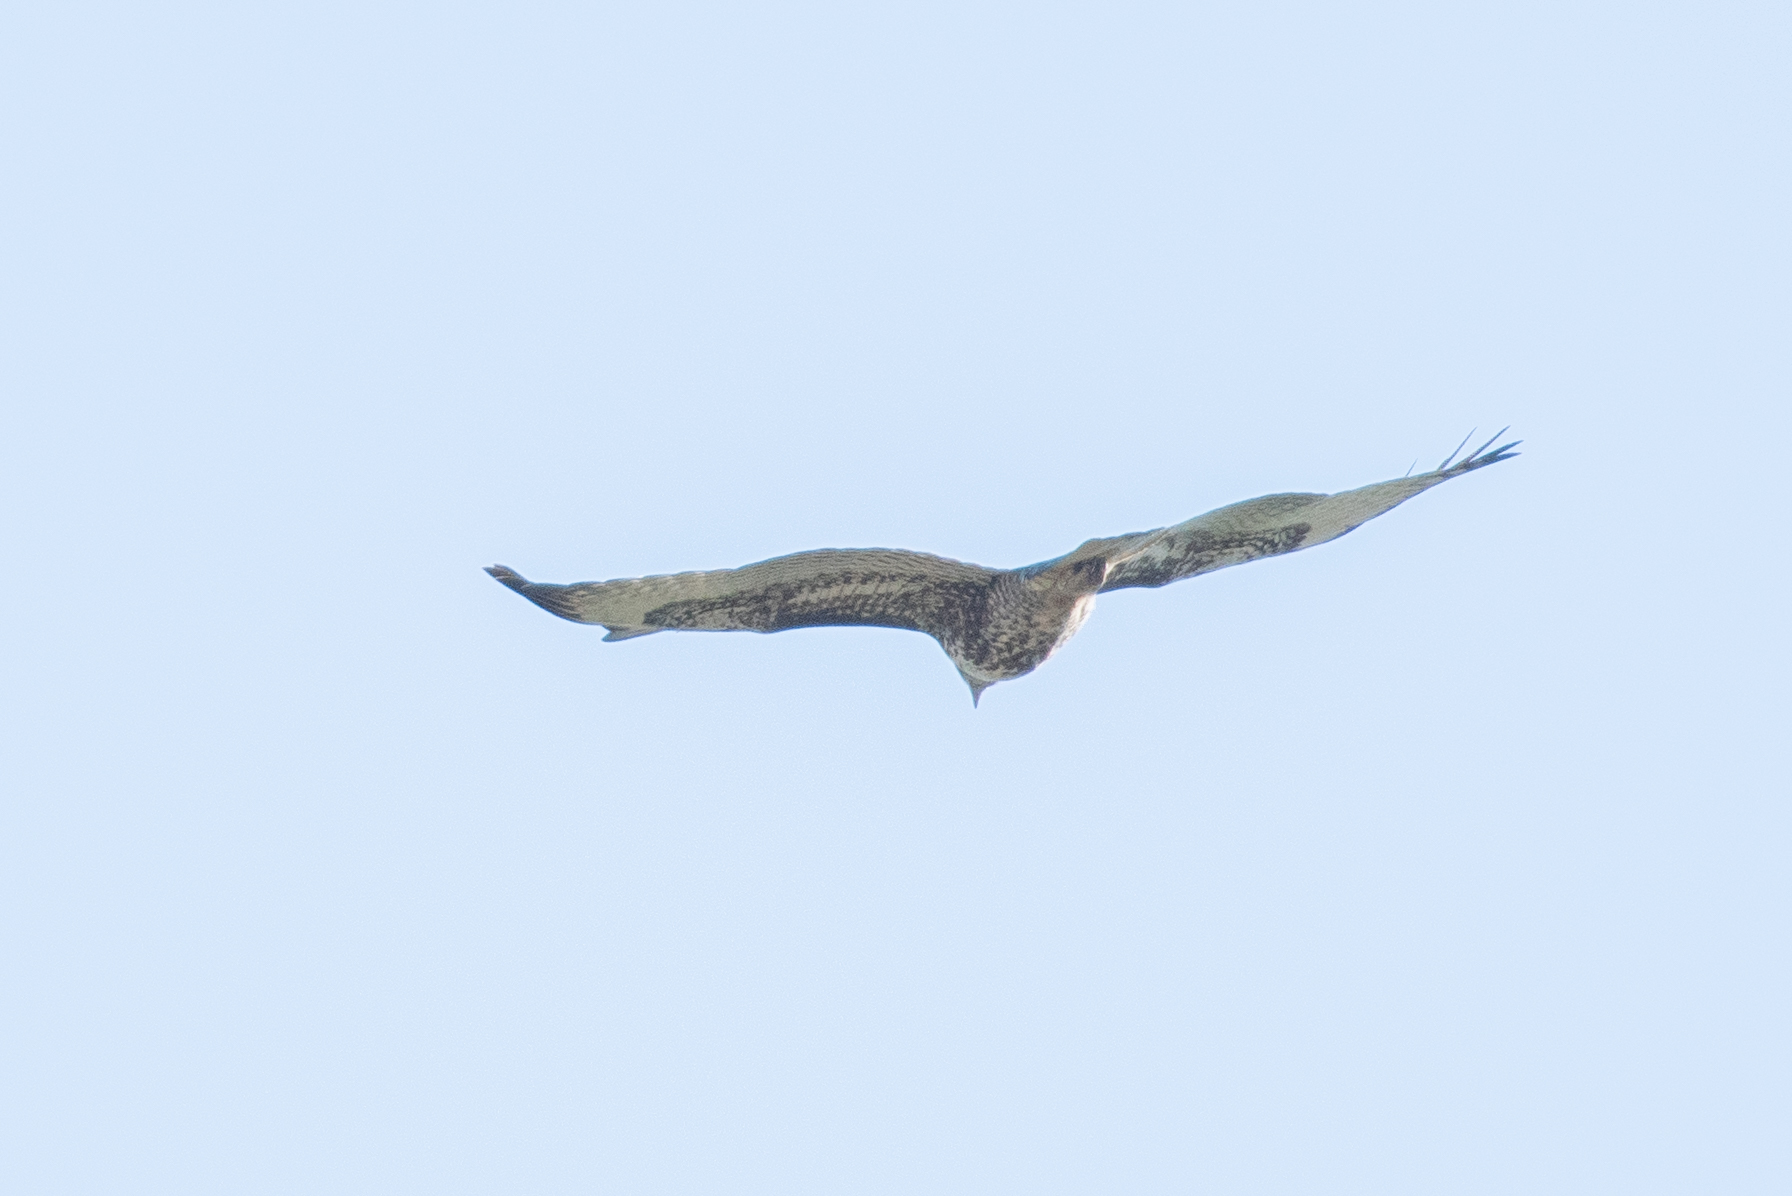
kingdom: Animalia
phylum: Chordata
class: Aves
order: Accipitriformes
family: Accipitridae
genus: Buteo
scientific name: Buteo jamaicensis
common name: Red-tailed hawk
